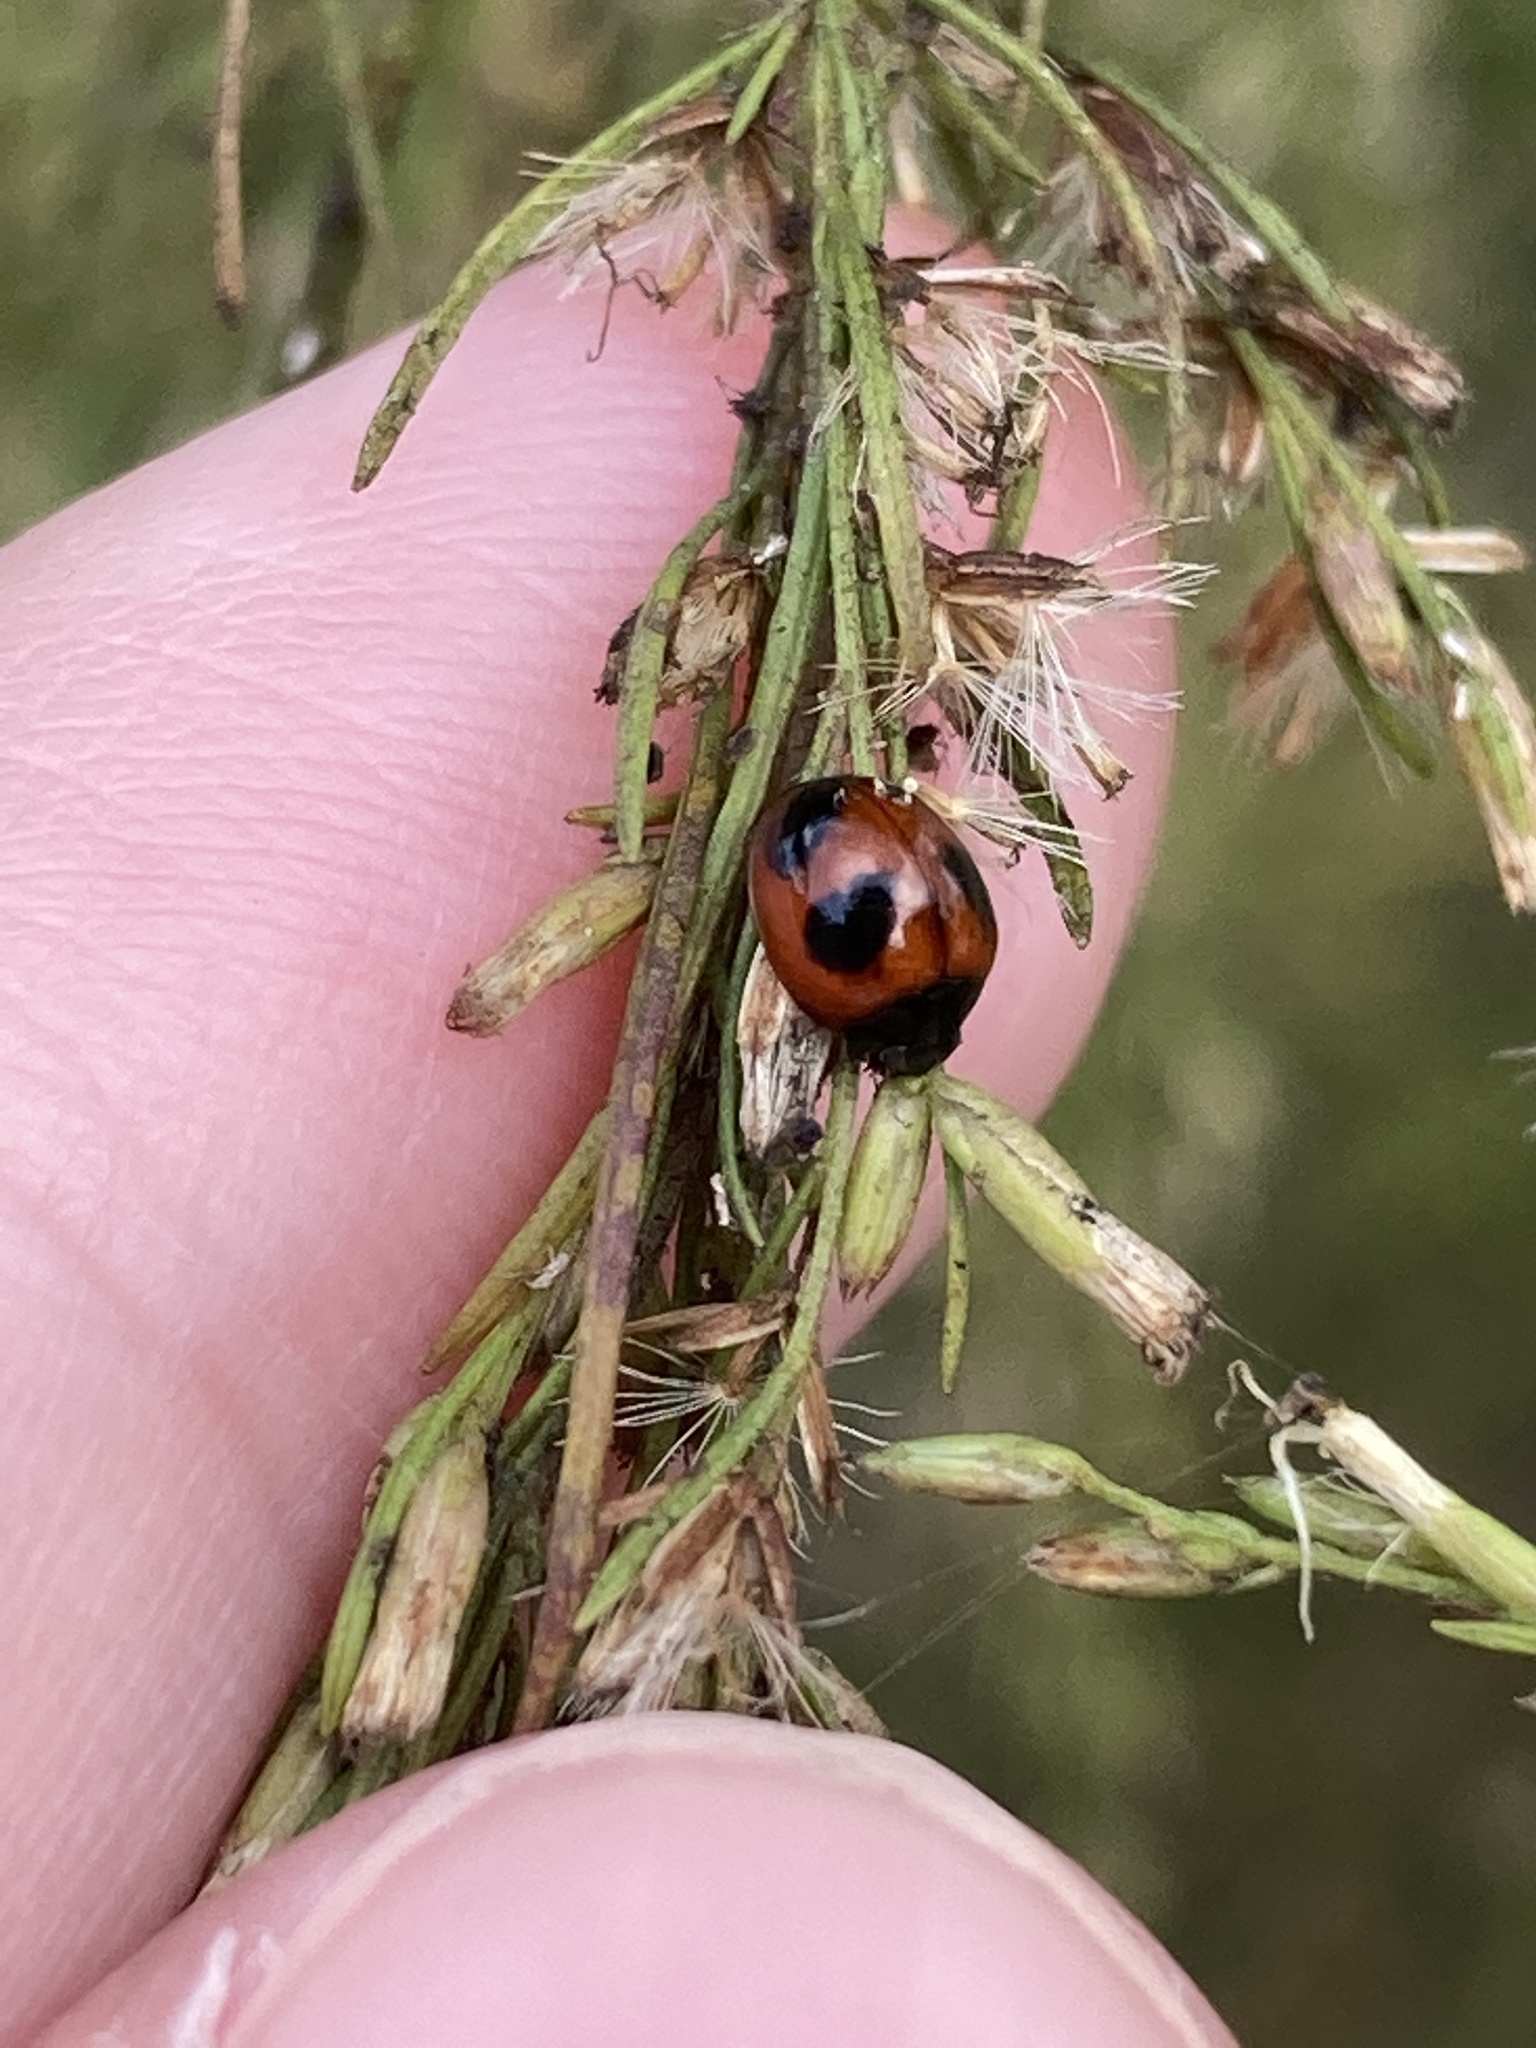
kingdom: Animalia
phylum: Arthropoda
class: Insecta
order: Coleoptera
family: Coccinellidae
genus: Exochomus
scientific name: Exochomus childreni
